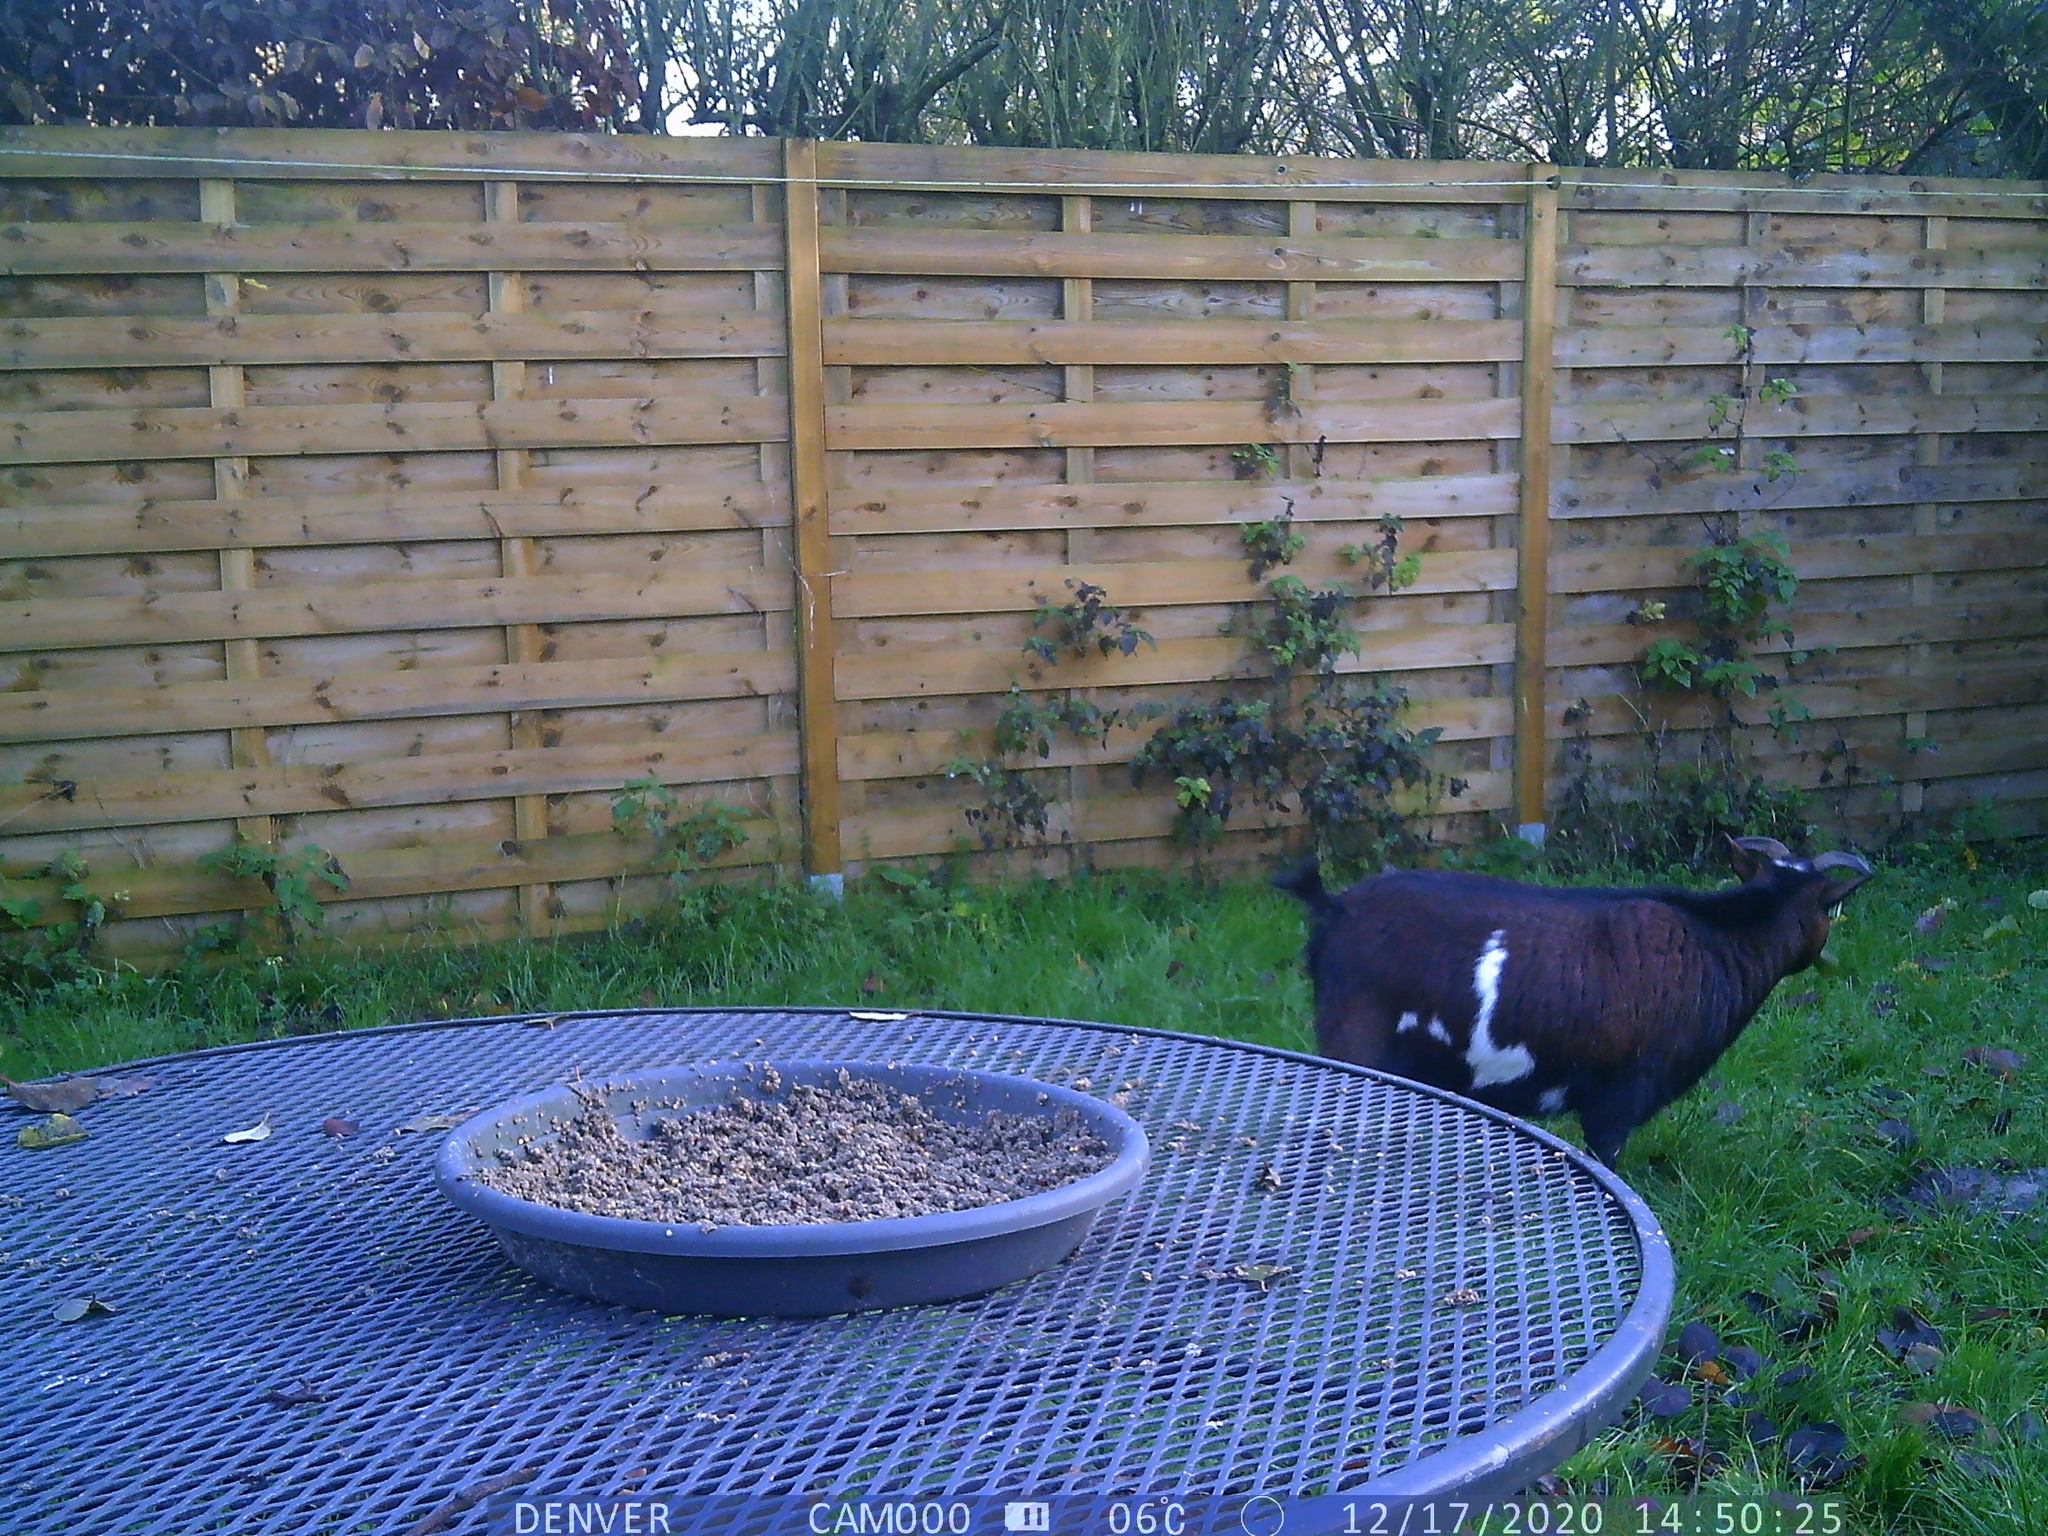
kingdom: Animalia
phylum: Chordata
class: Aves
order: Passeriformes
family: Corvidae
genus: Pica
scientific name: Pica pica
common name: Eurasian magpie
